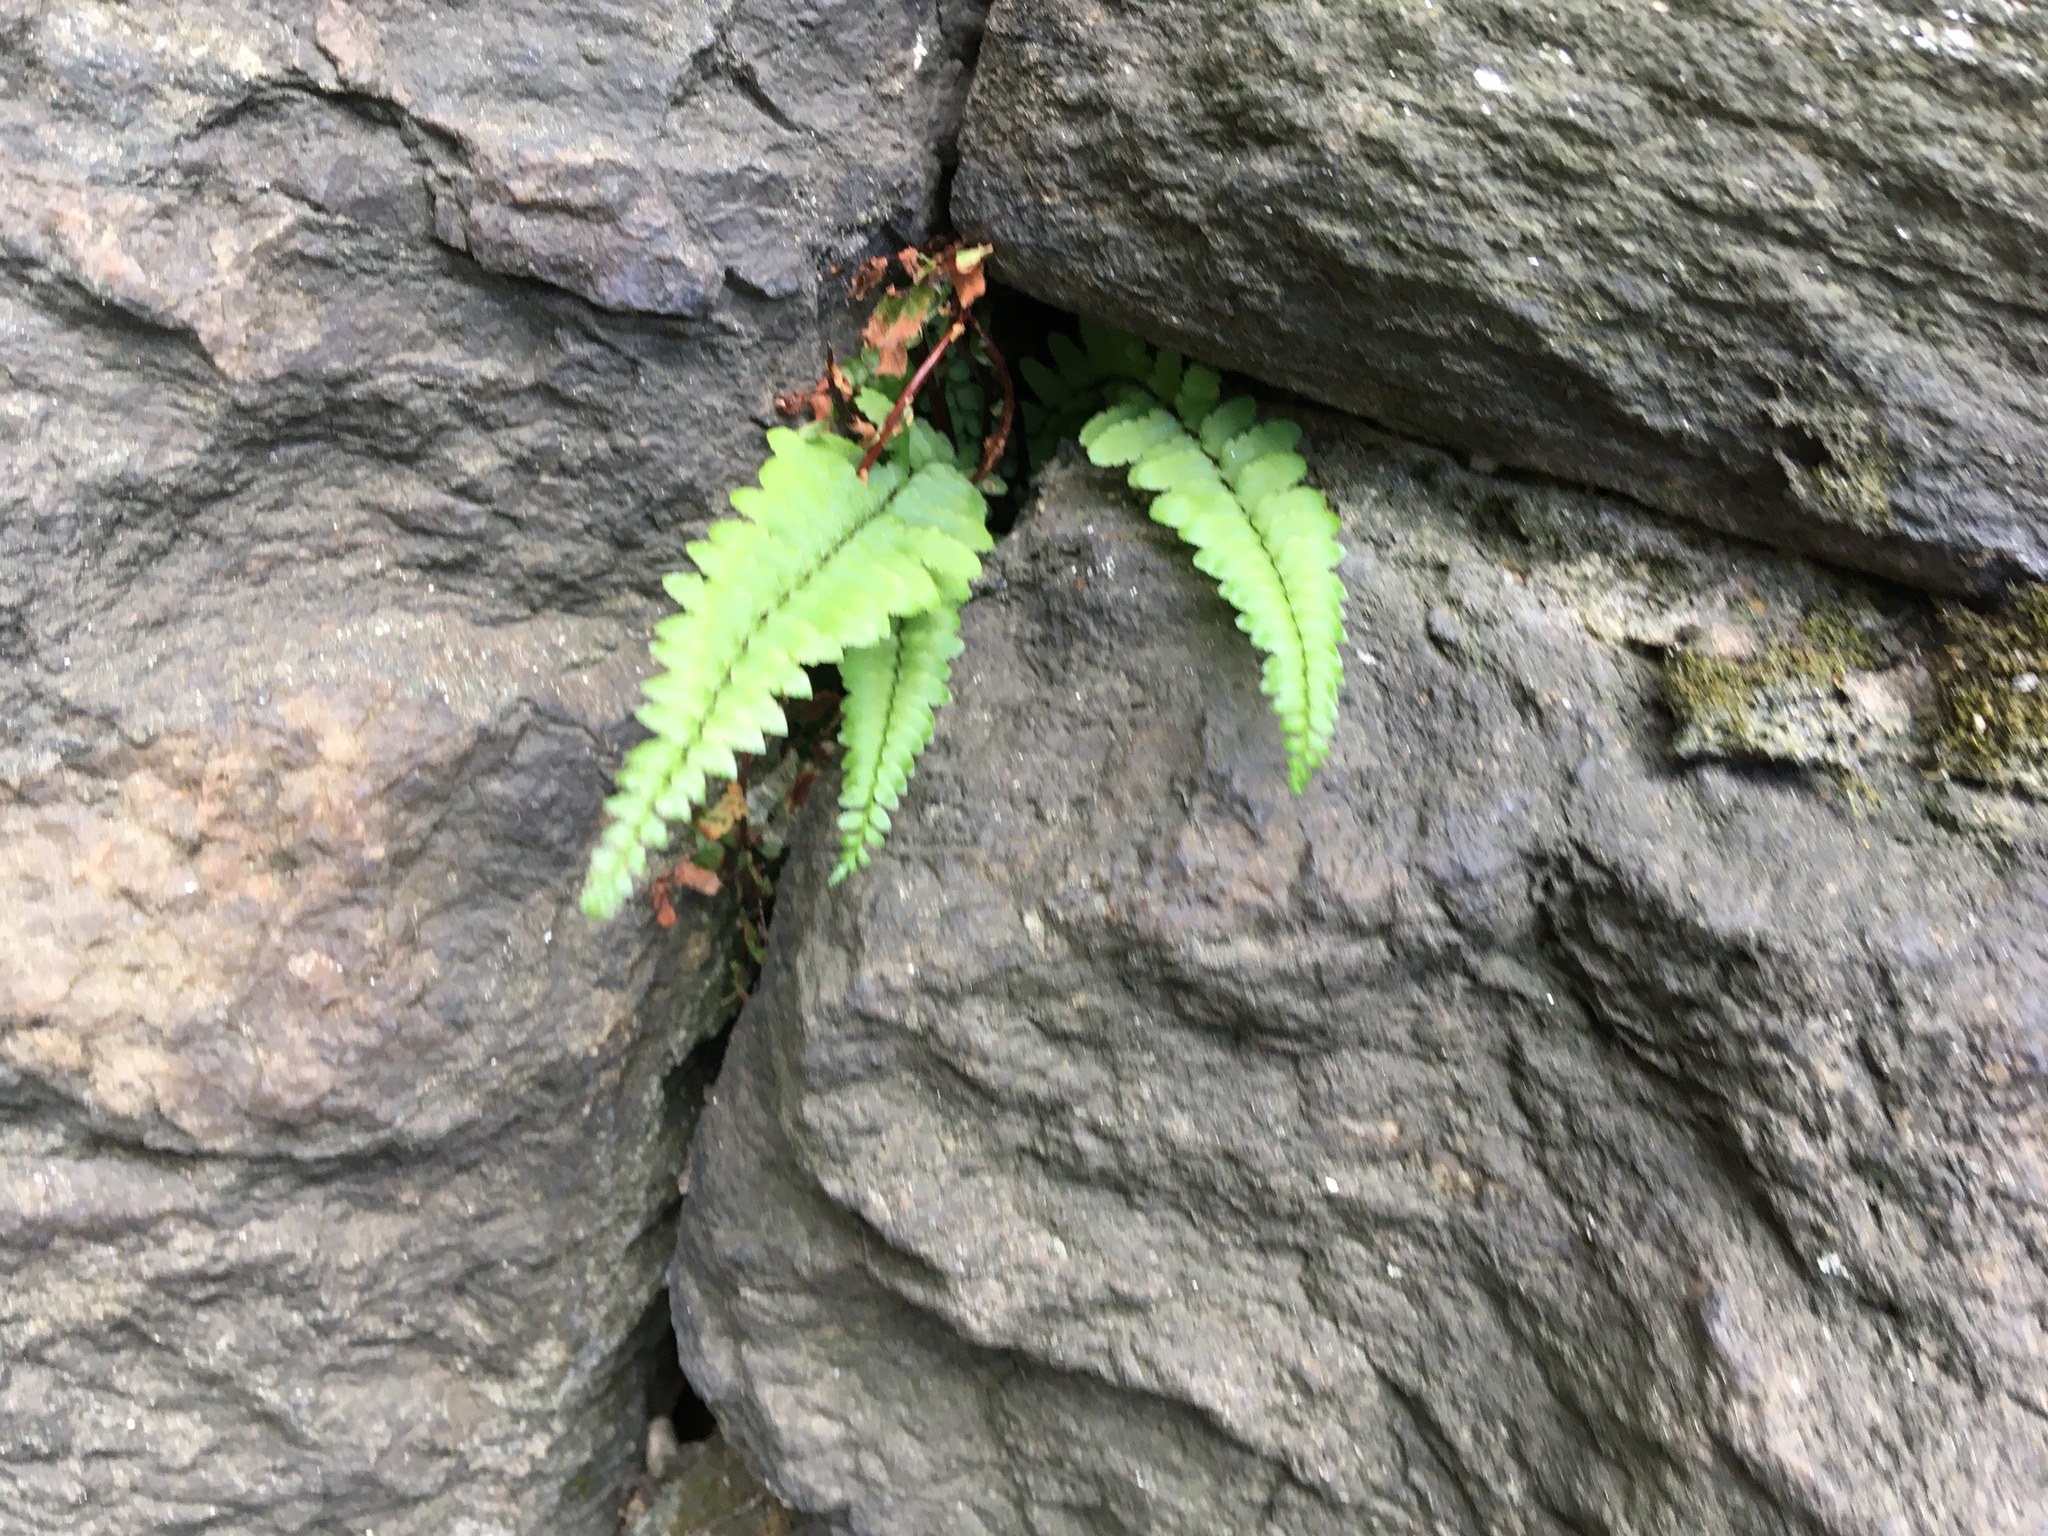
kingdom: Plantae
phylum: Tracheophyta
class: Polypodiopsida
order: Polypodiales
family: Aspleniaceae
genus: Asplenium
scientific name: Asplenium platyneuron
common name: Ebony spleenwort
